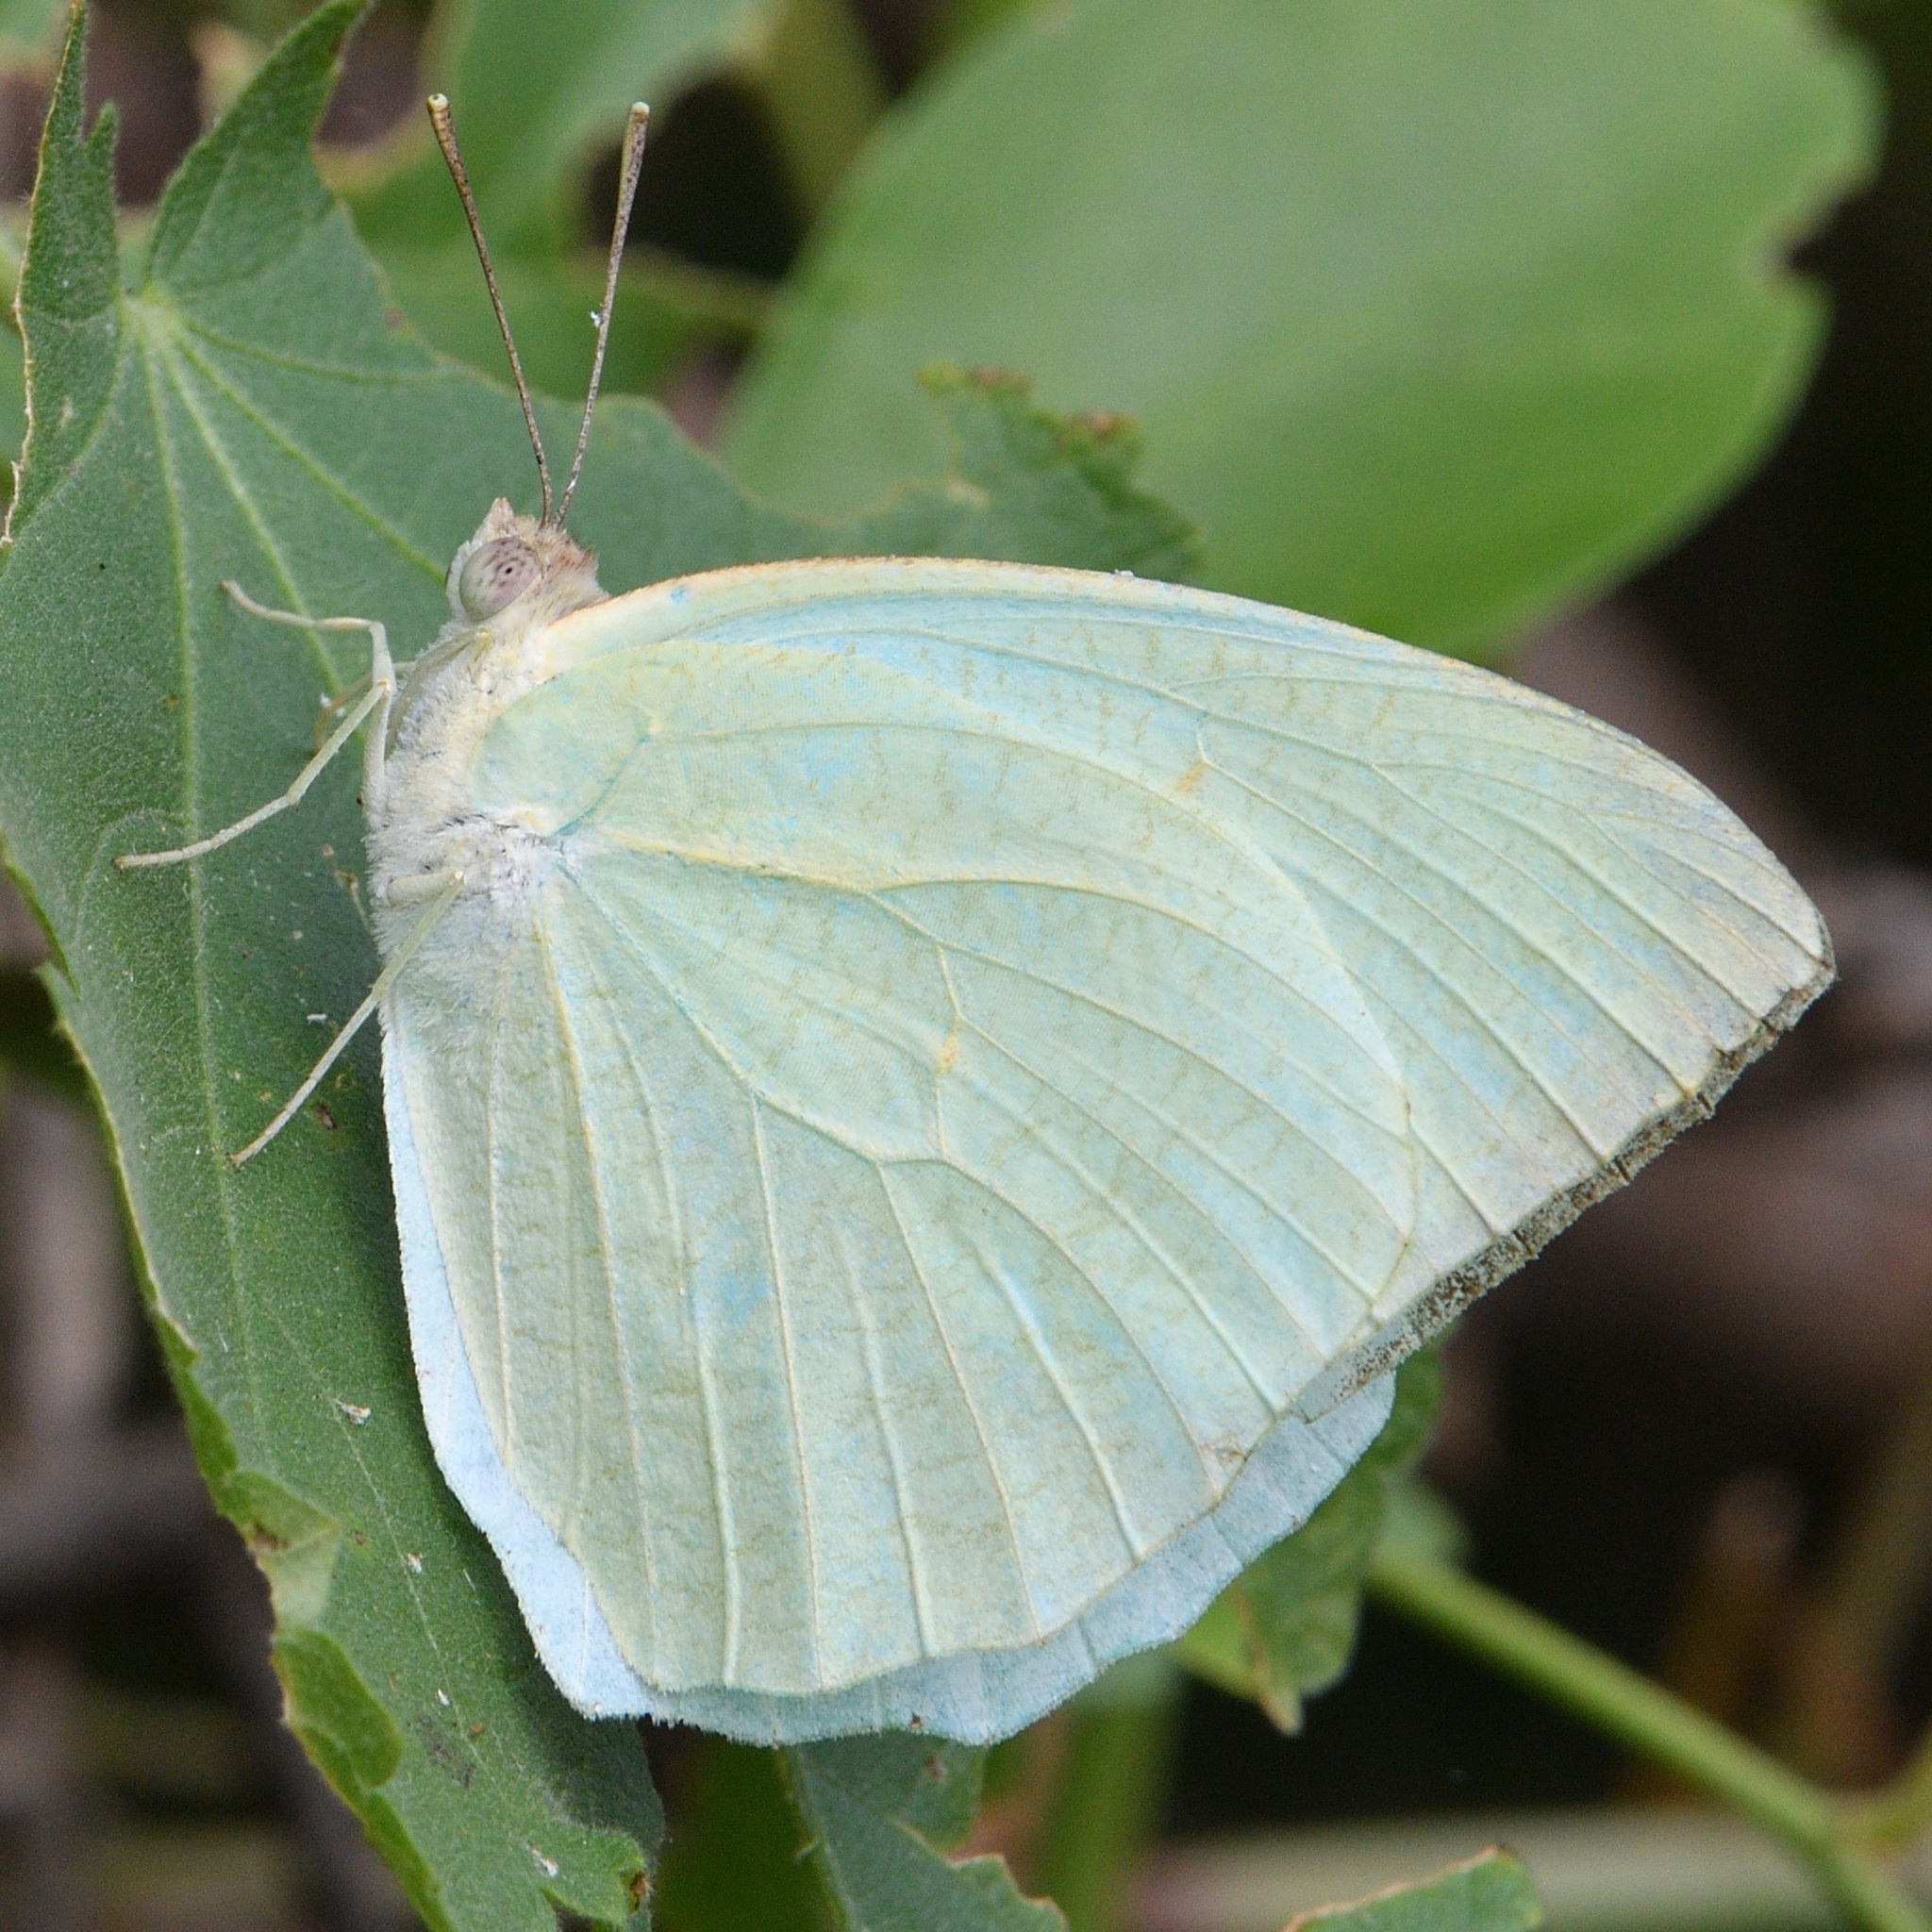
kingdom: Animalia
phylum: Arthropoda
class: Insecta
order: Lepidoptera
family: Pieridae
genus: Catopsilia
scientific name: Catopsilia pyranthe
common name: Mottled emigrant
